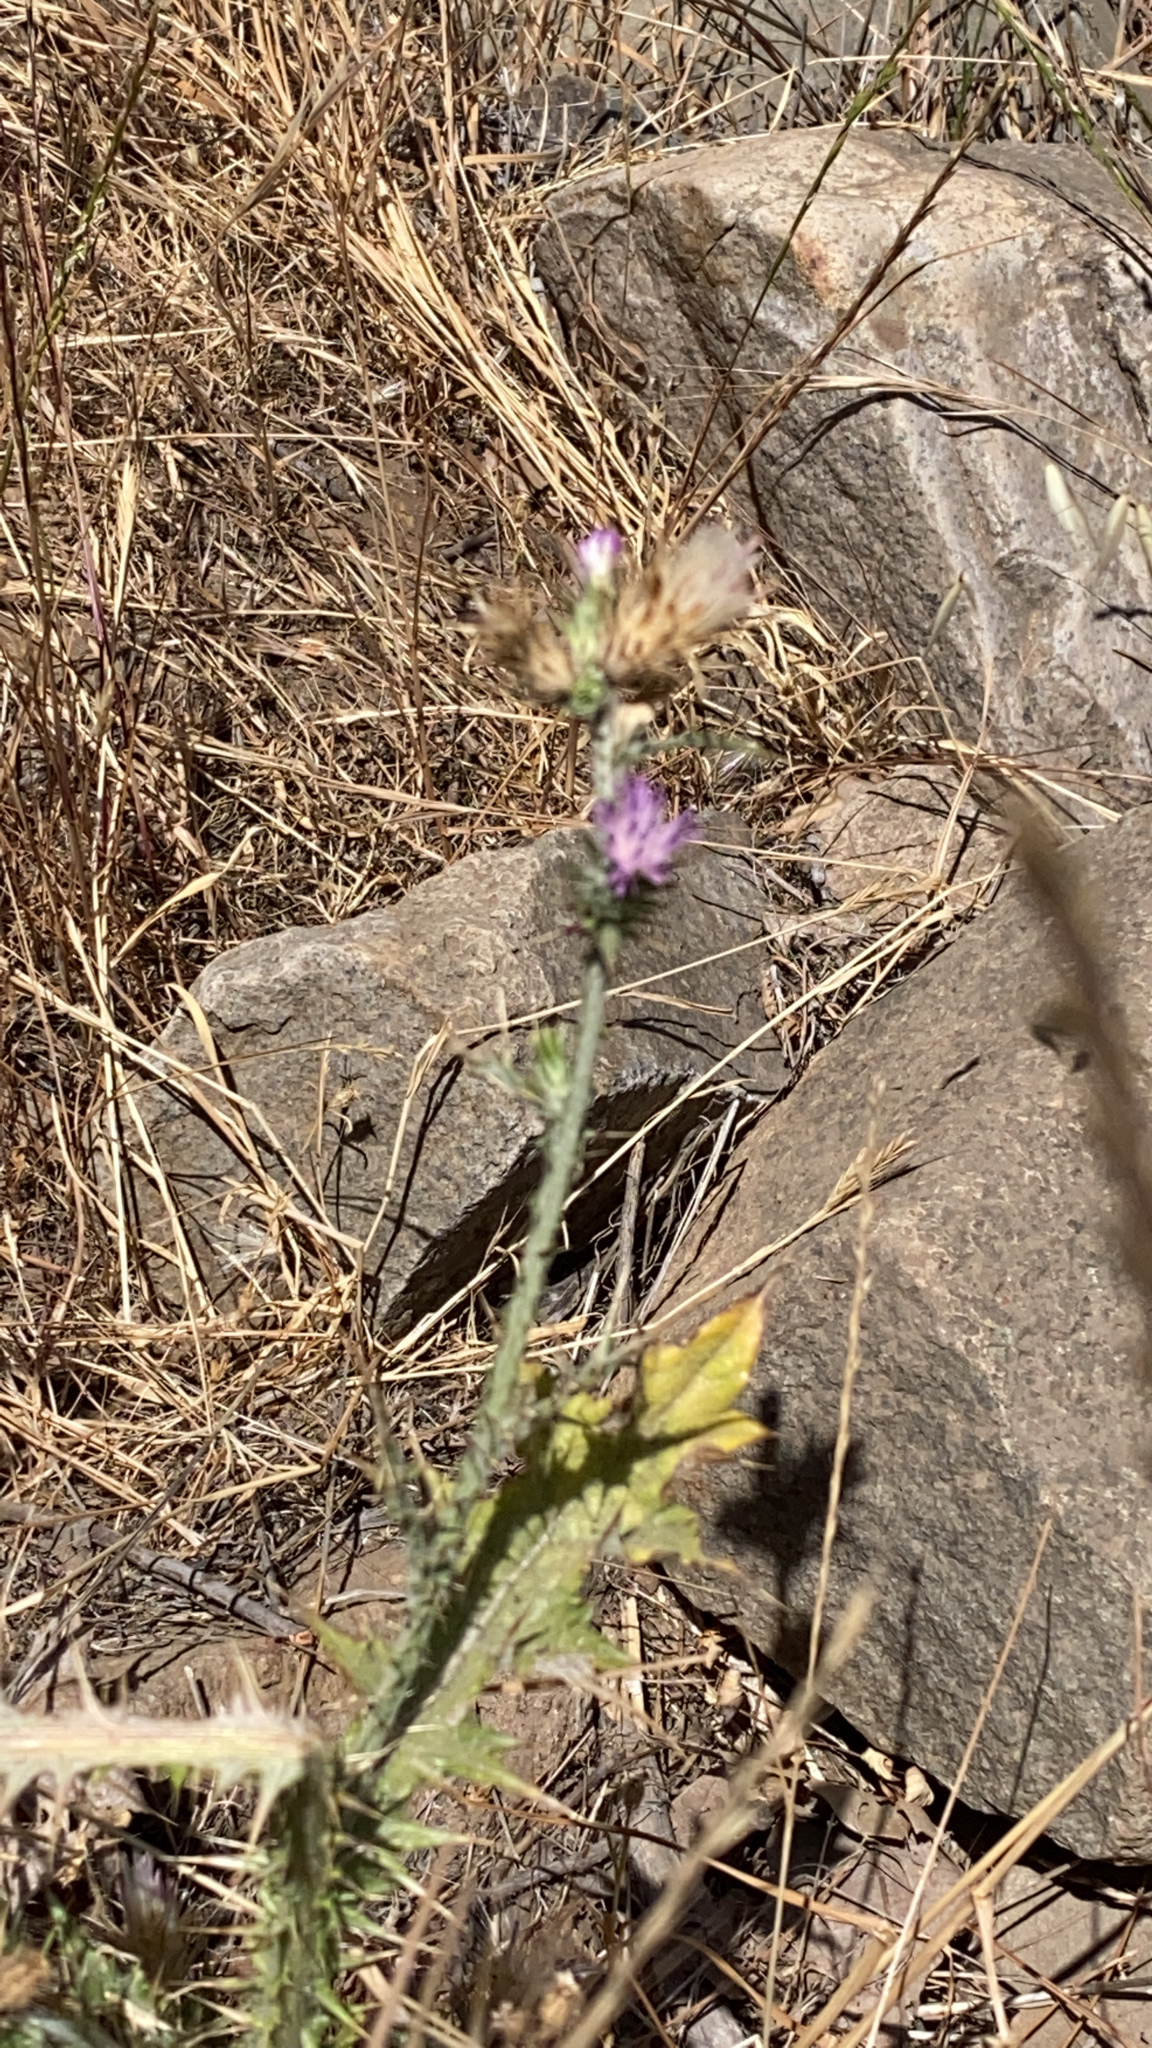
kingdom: Plantae
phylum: Tracheophyta
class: Magnoliopsida
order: Asterales
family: Asteraceae
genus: Carduus
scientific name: Carduus pycnocephalus
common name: Plymouth thistle
